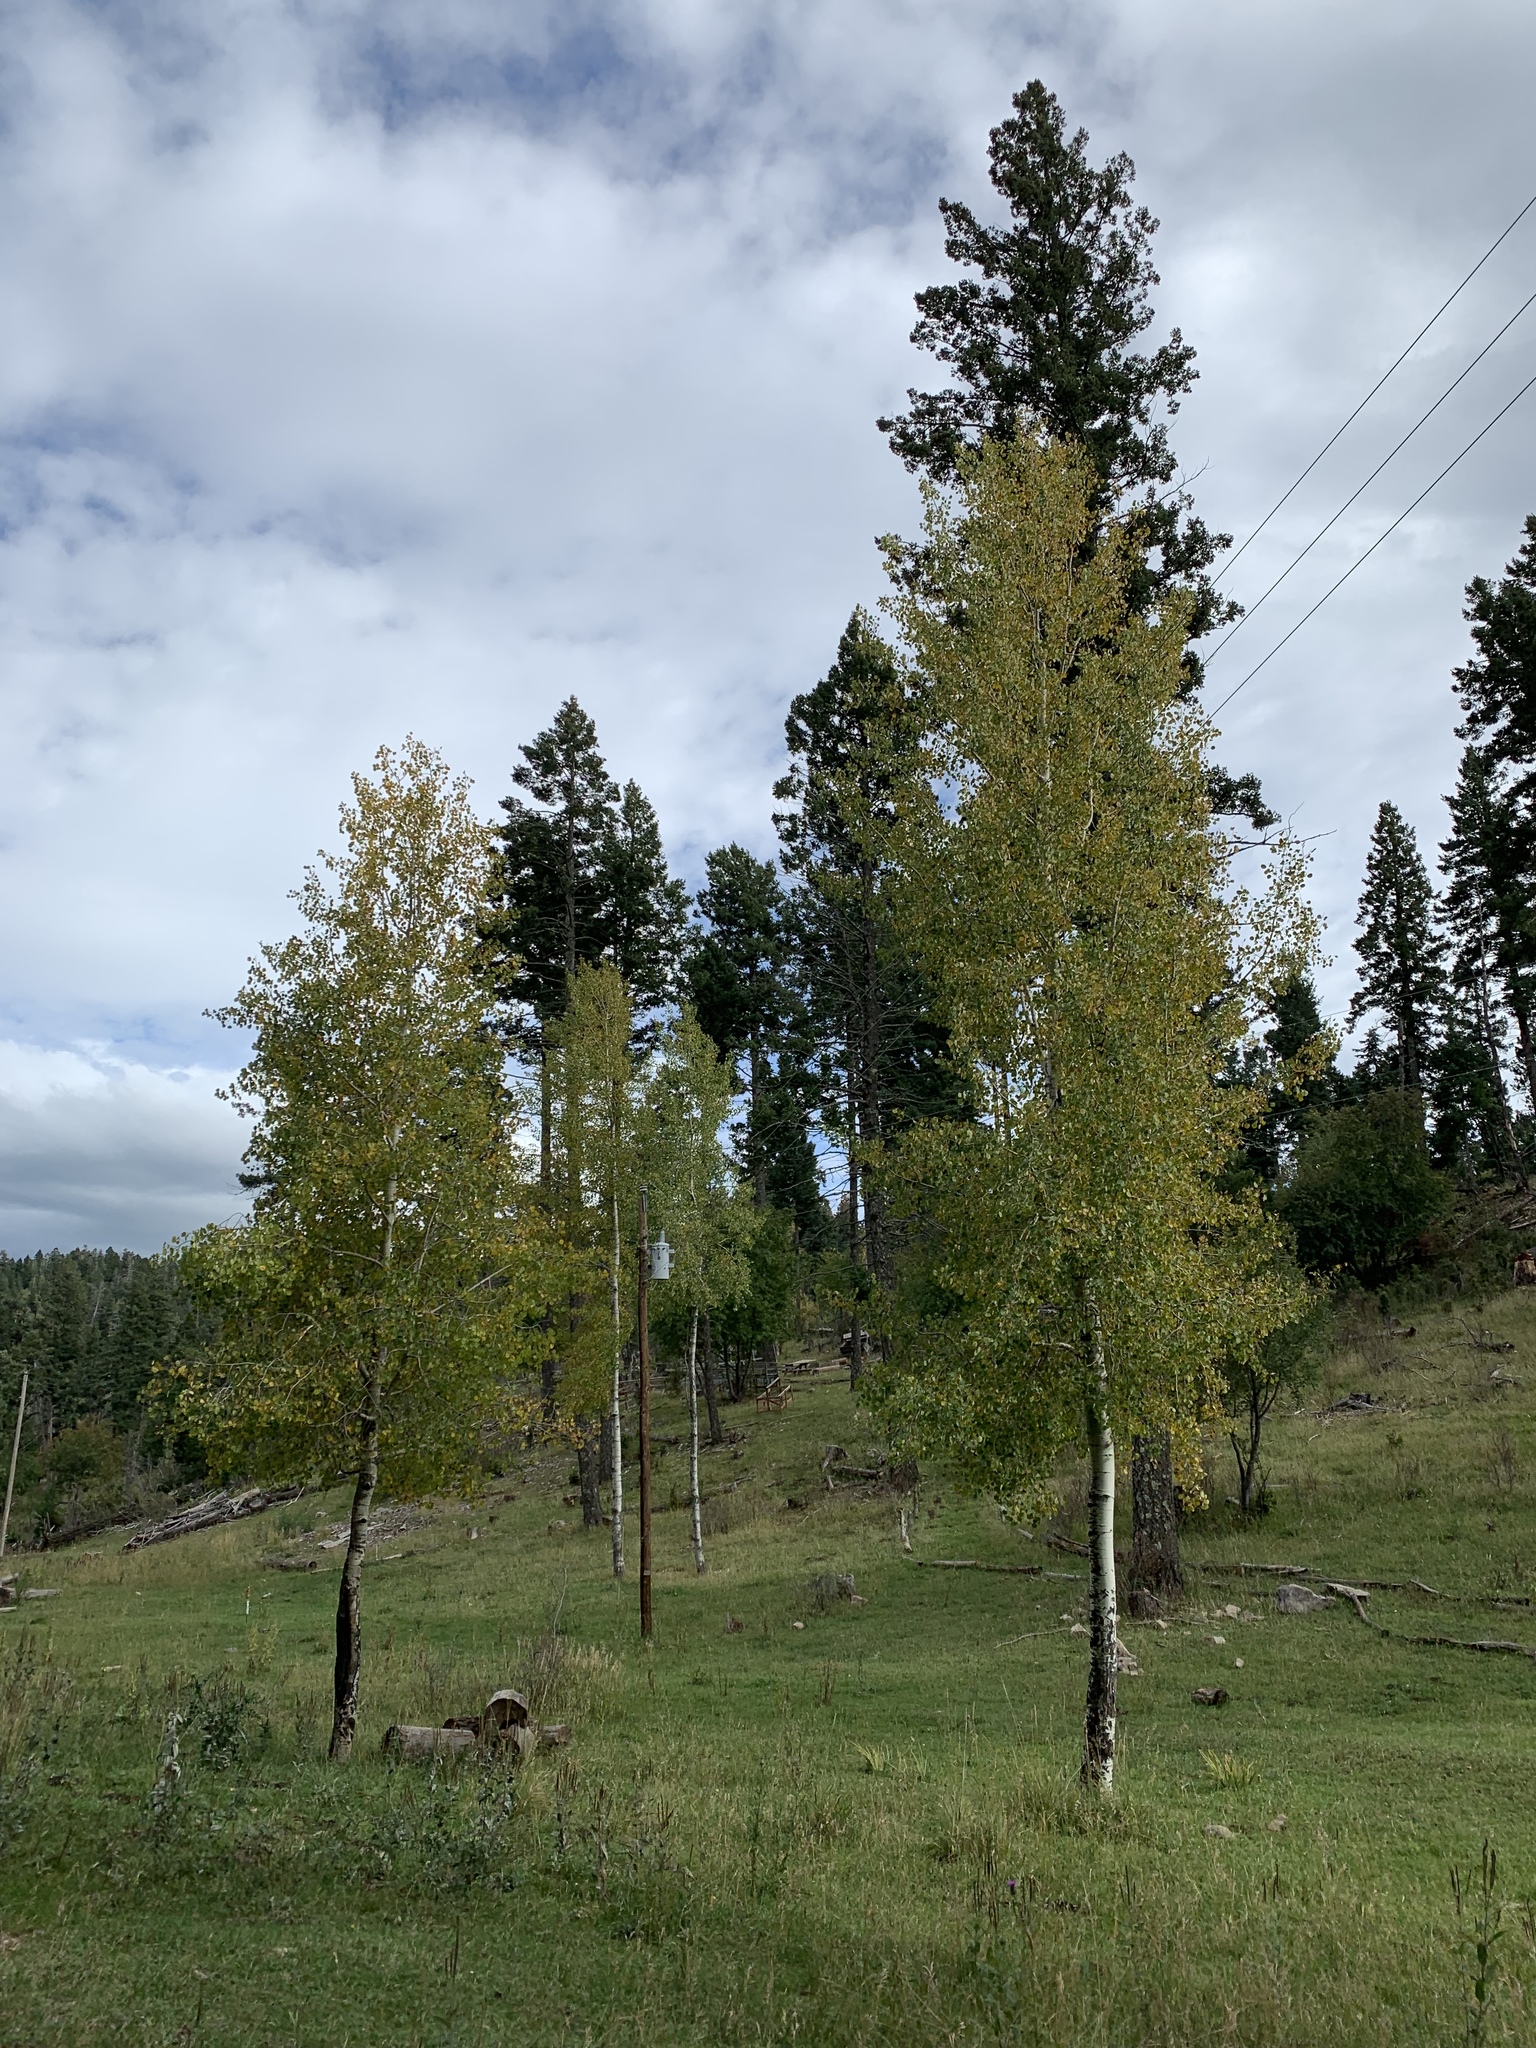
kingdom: Plantae
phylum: Tracheophyta
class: Magnoliopsida
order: Malpighiales
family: Salicaceae
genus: Populus
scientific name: Populus tremuloides
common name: Quaking aspen
